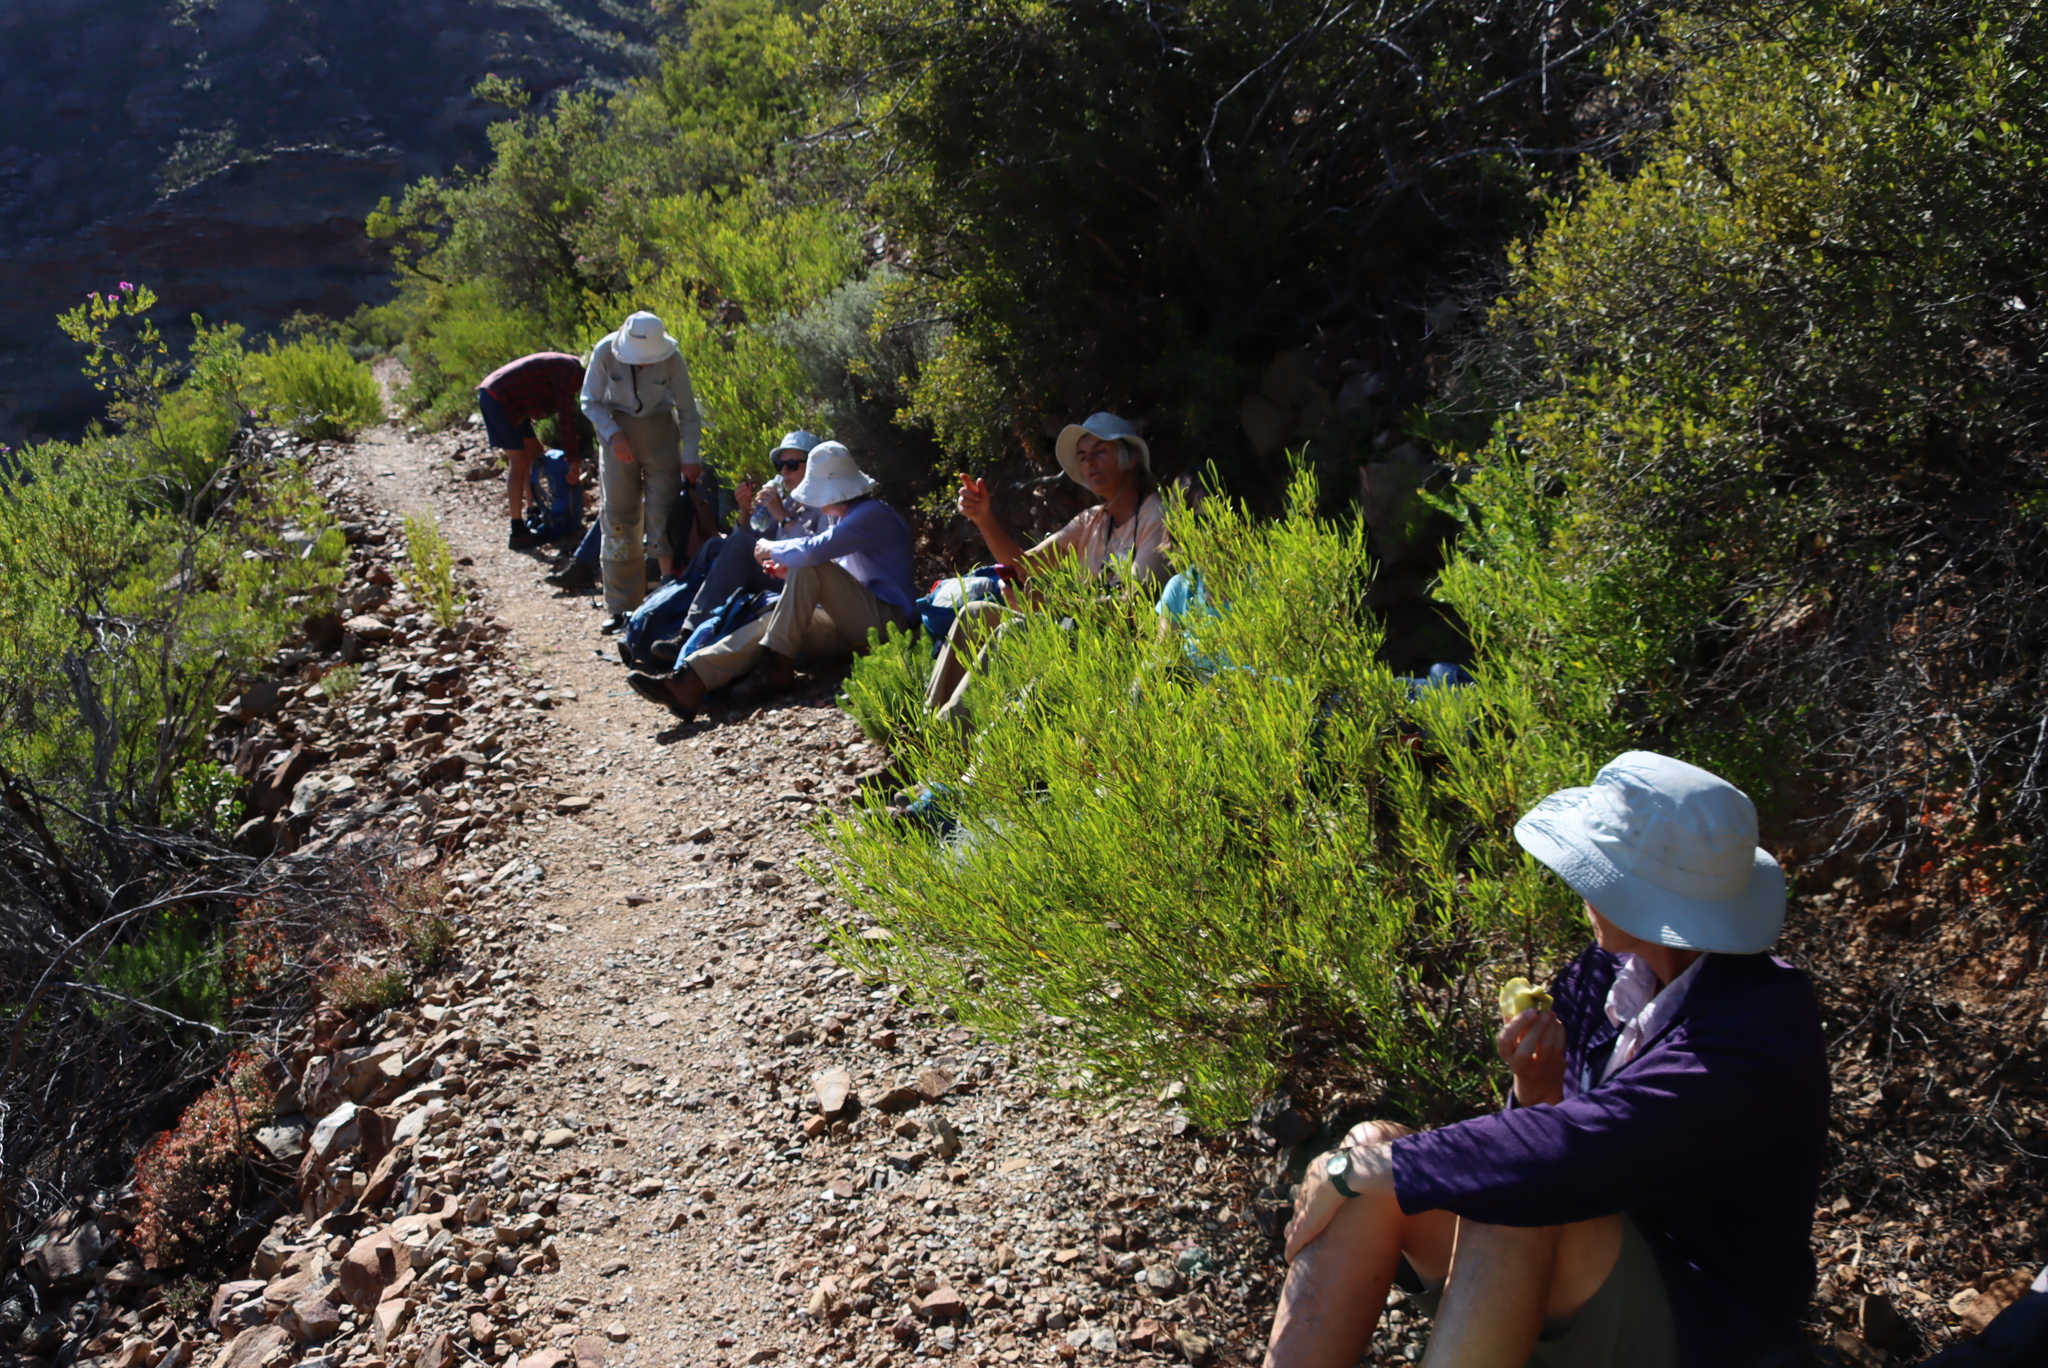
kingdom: Plantae
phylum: Tracheophyta
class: Magnoliopsida
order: Sapindales
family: Sapindaceae
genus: Dodonaea
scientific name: Dodonaea viscosa
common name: Hopbush
